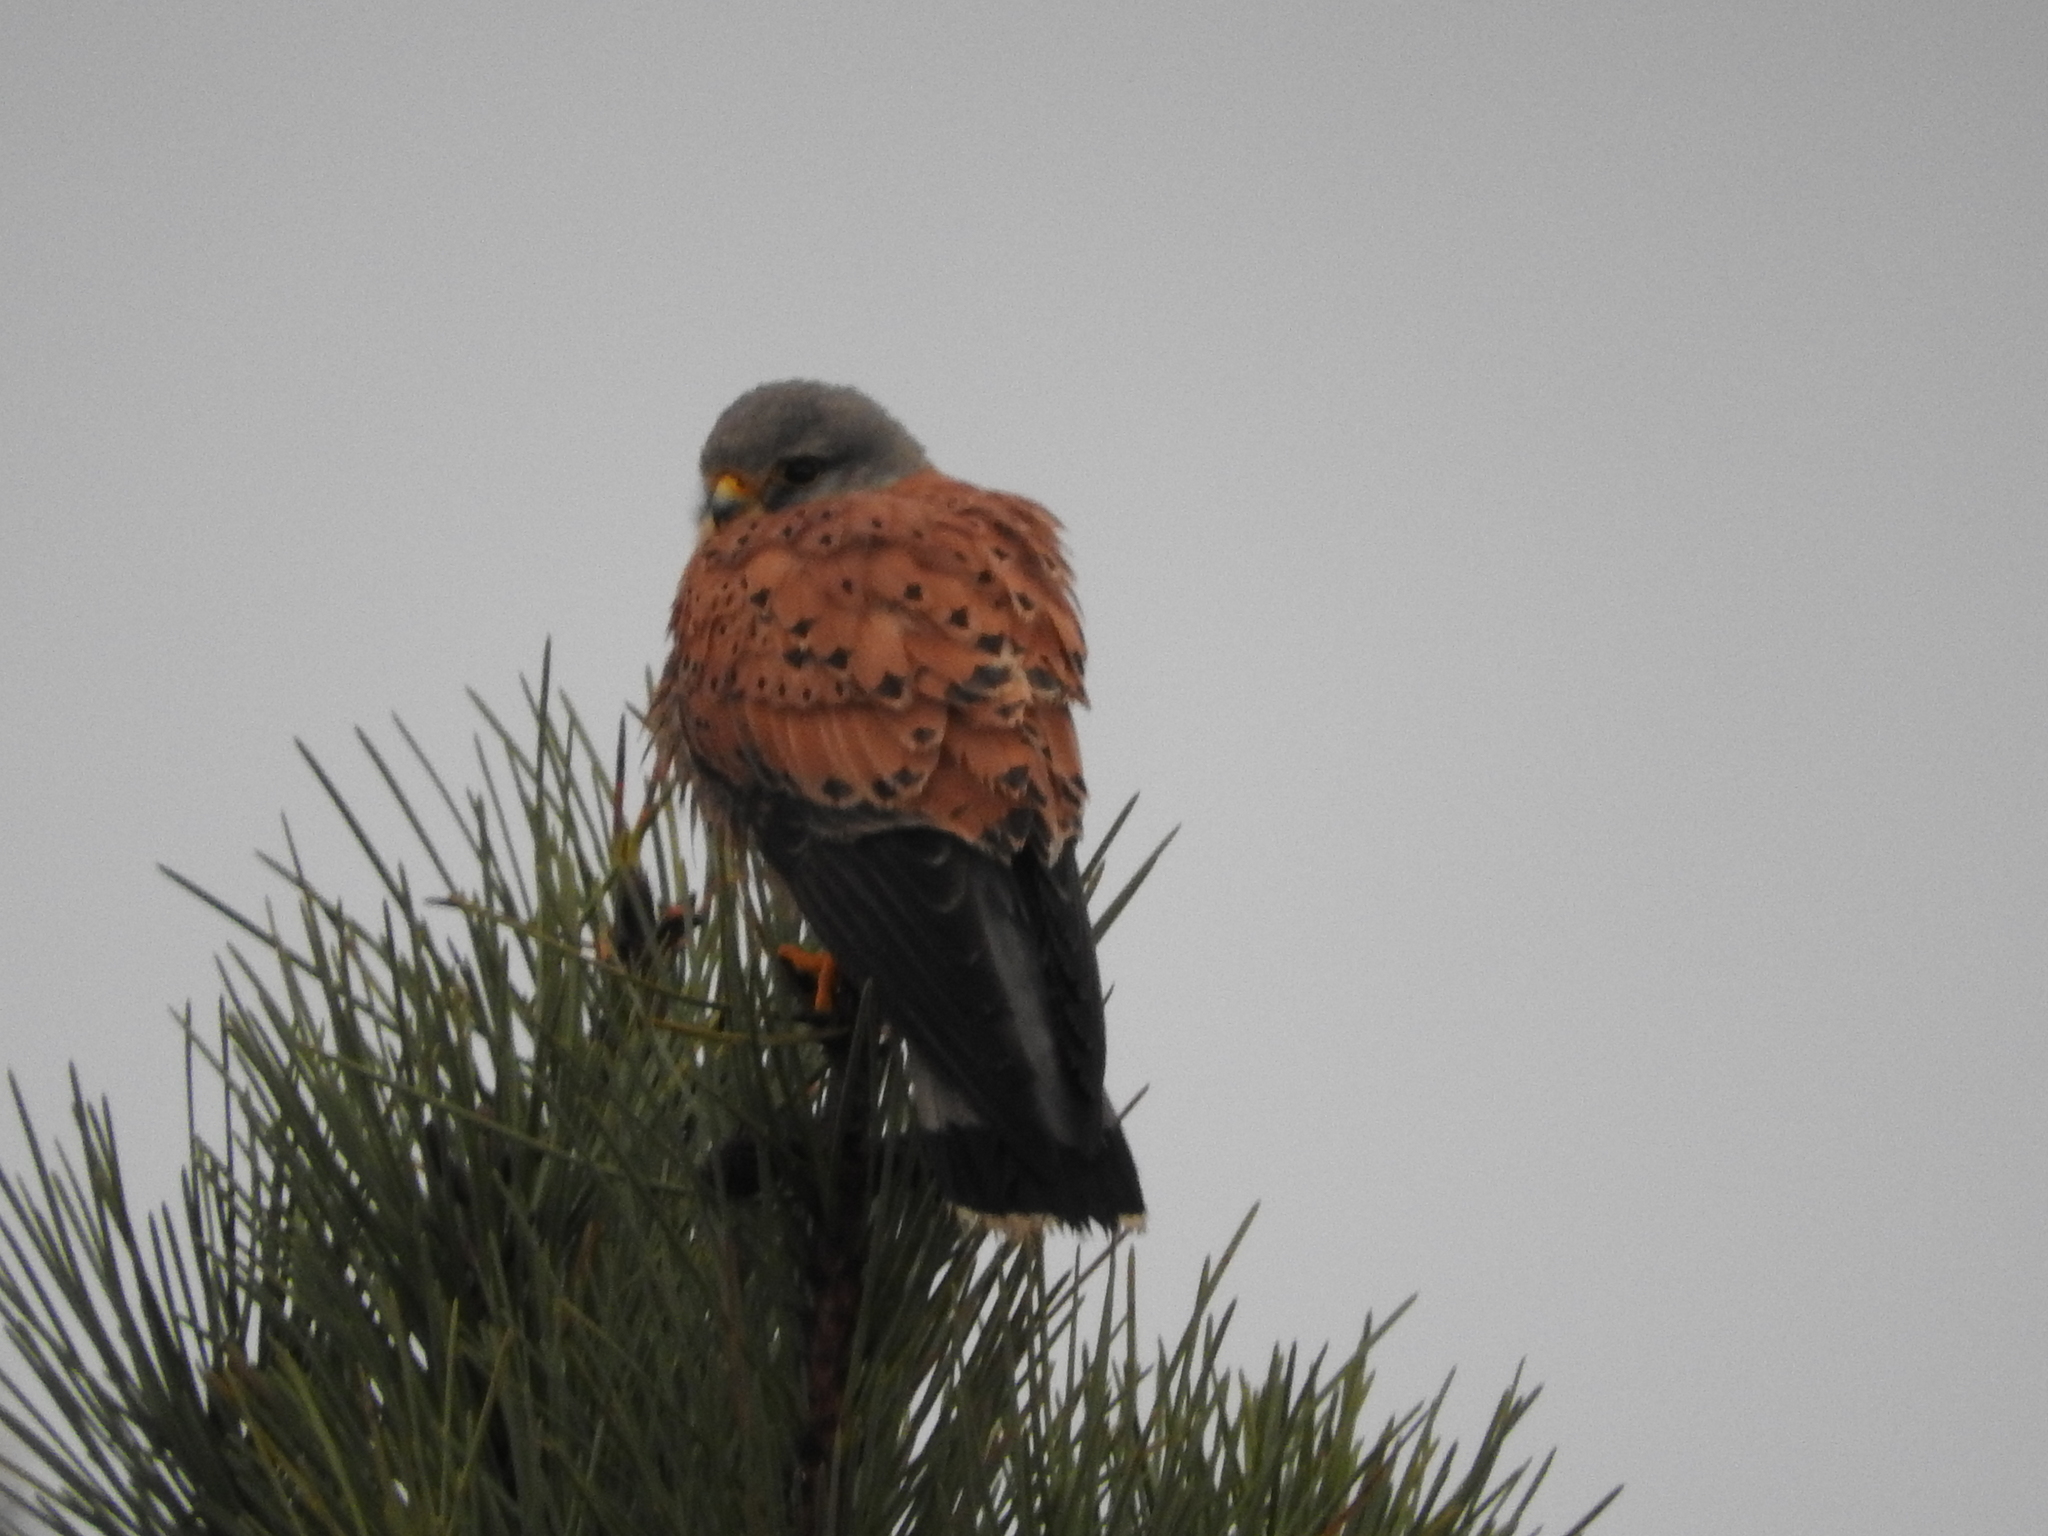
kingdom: Animalia
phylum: Chordata
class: Aves
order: Falconiformes
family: Falconidae
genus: Falco
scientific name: Falco tinnunculus
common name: Common kestrel
